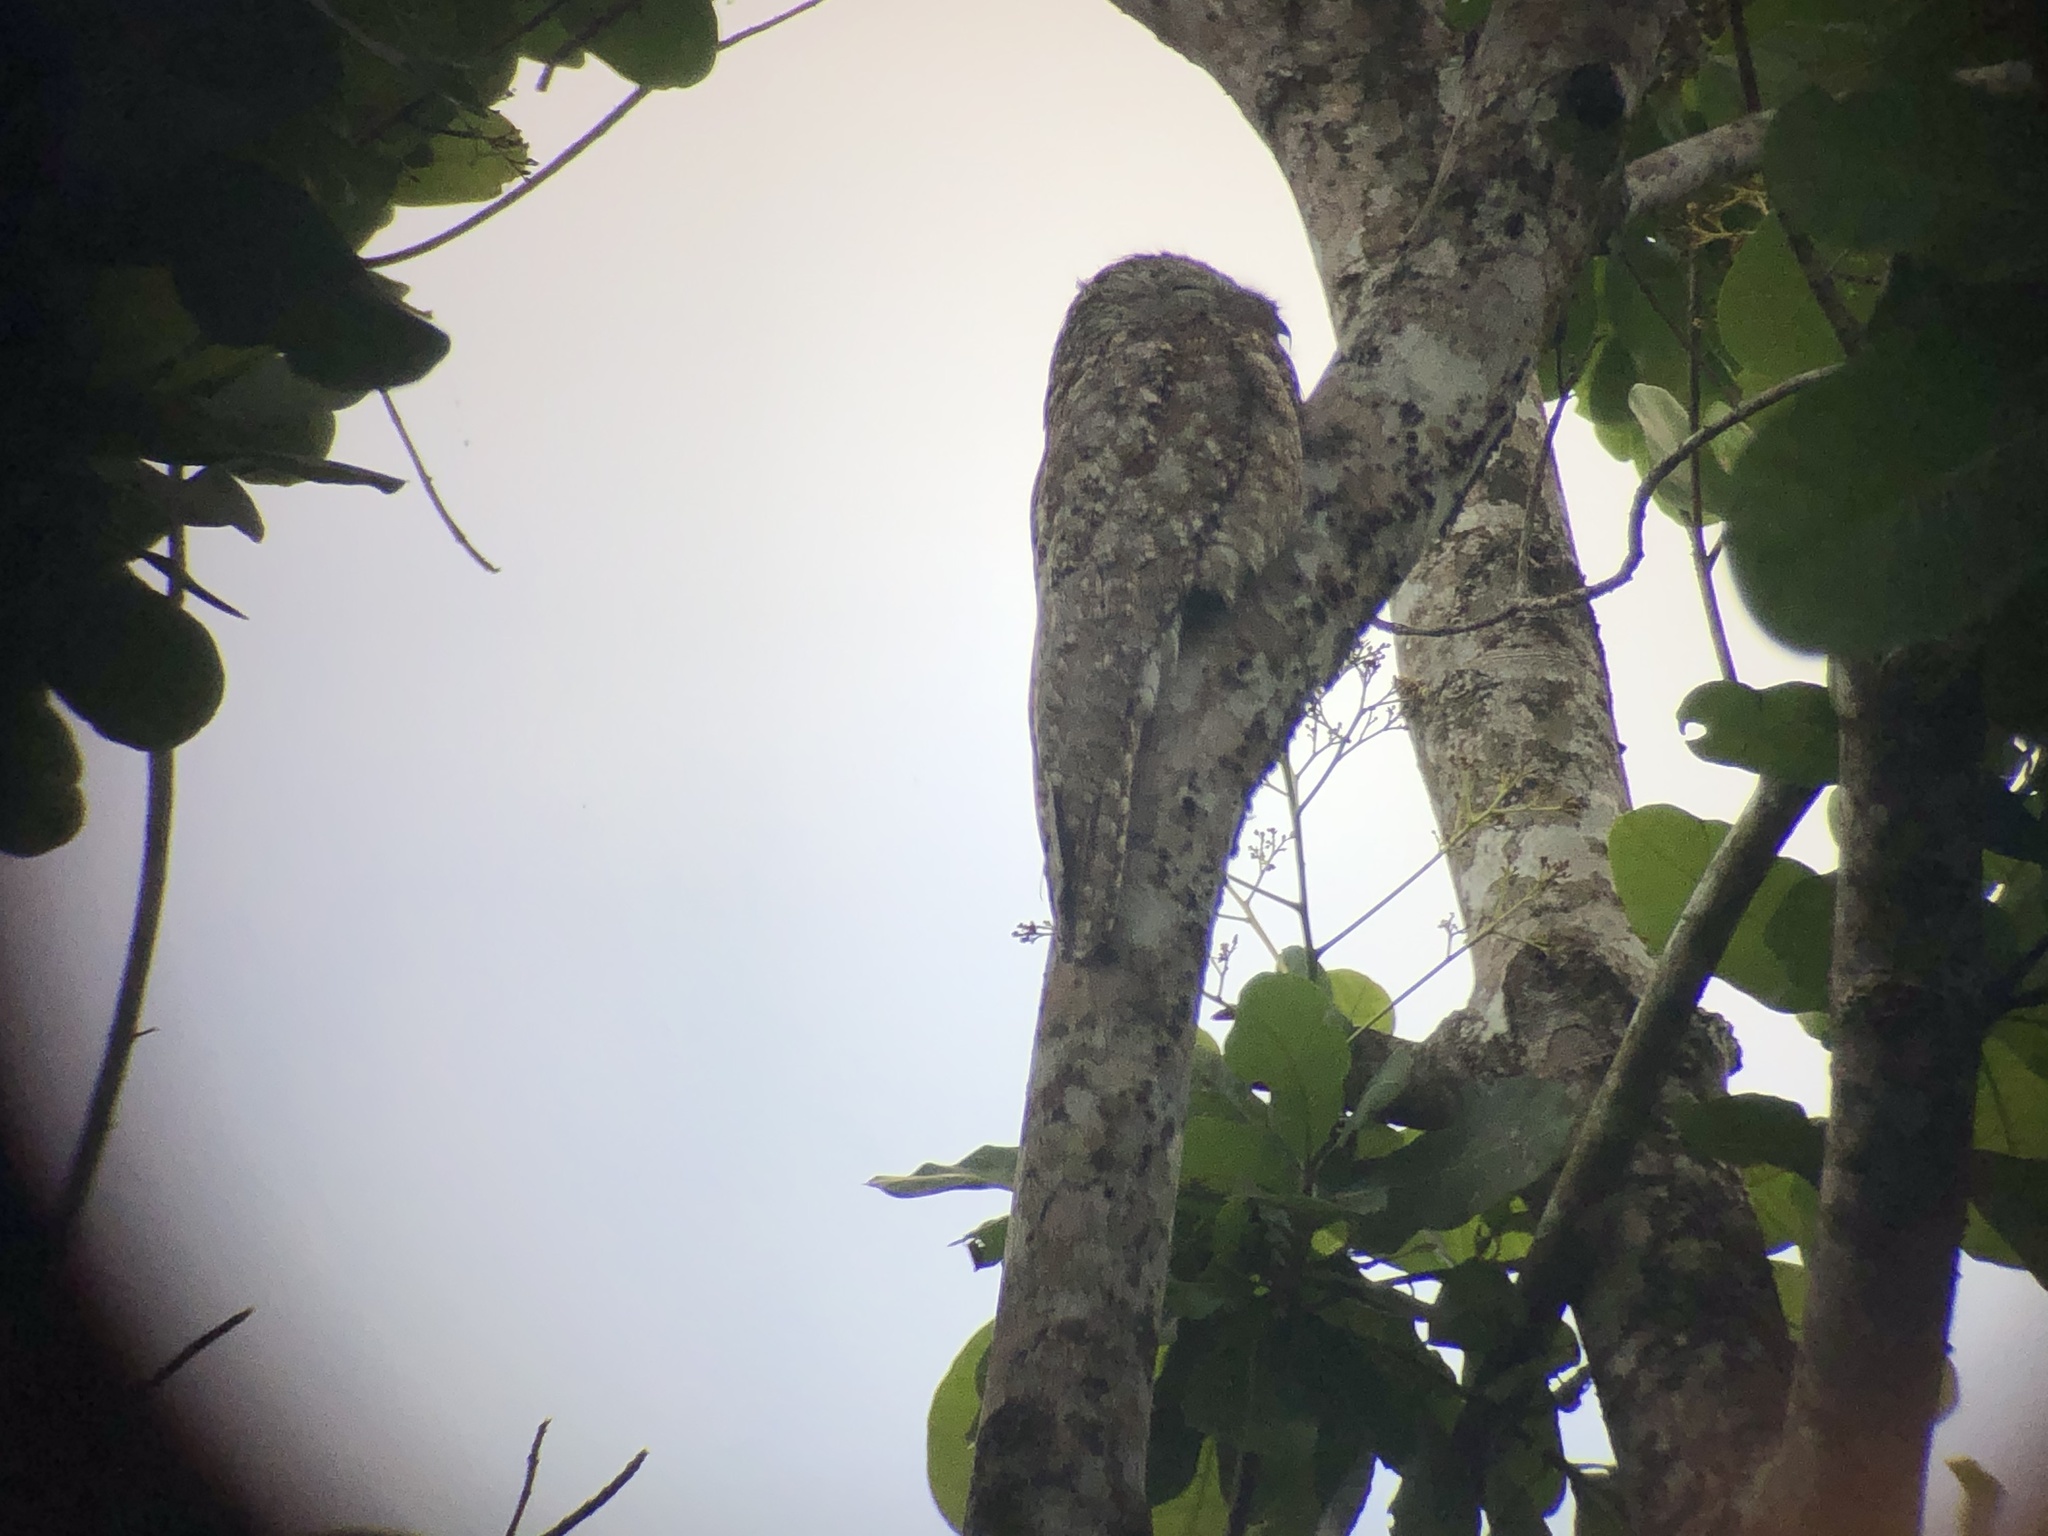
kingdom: Animalia
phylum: Chordata
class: Aves
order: Nyctibiiformes
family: Nyctibiidae
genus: Nyctibius
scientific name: Nyctibius grandis
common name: Great potoo
